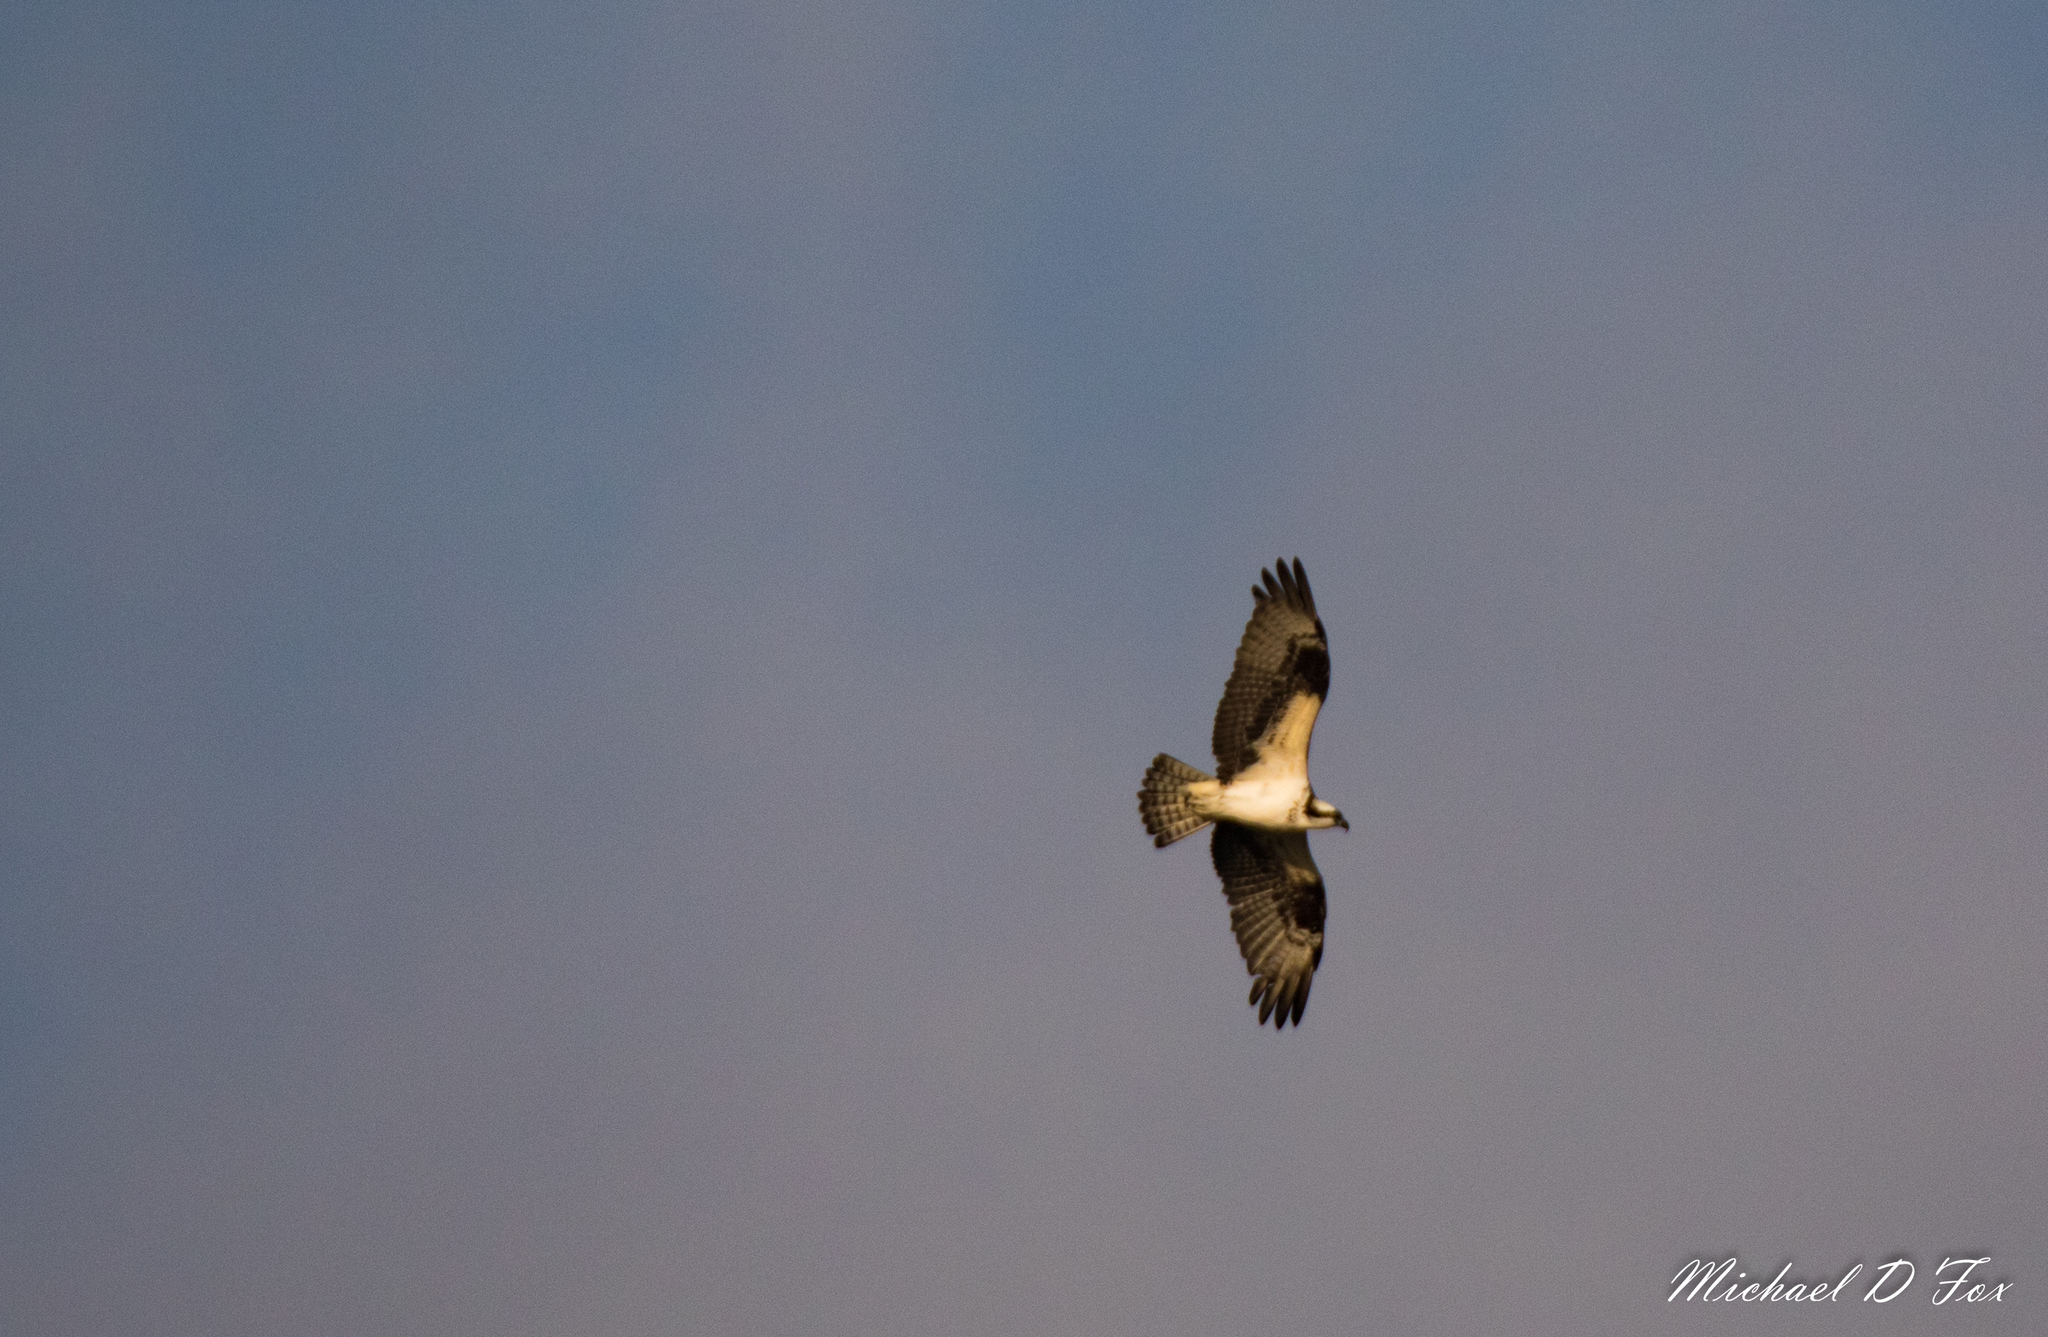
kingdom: Animalia
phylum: Chordata
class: Aves
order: Accipitriformes
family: Pandionidae
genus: Pandion
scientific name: Pandion haliaetus
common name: Osprey
